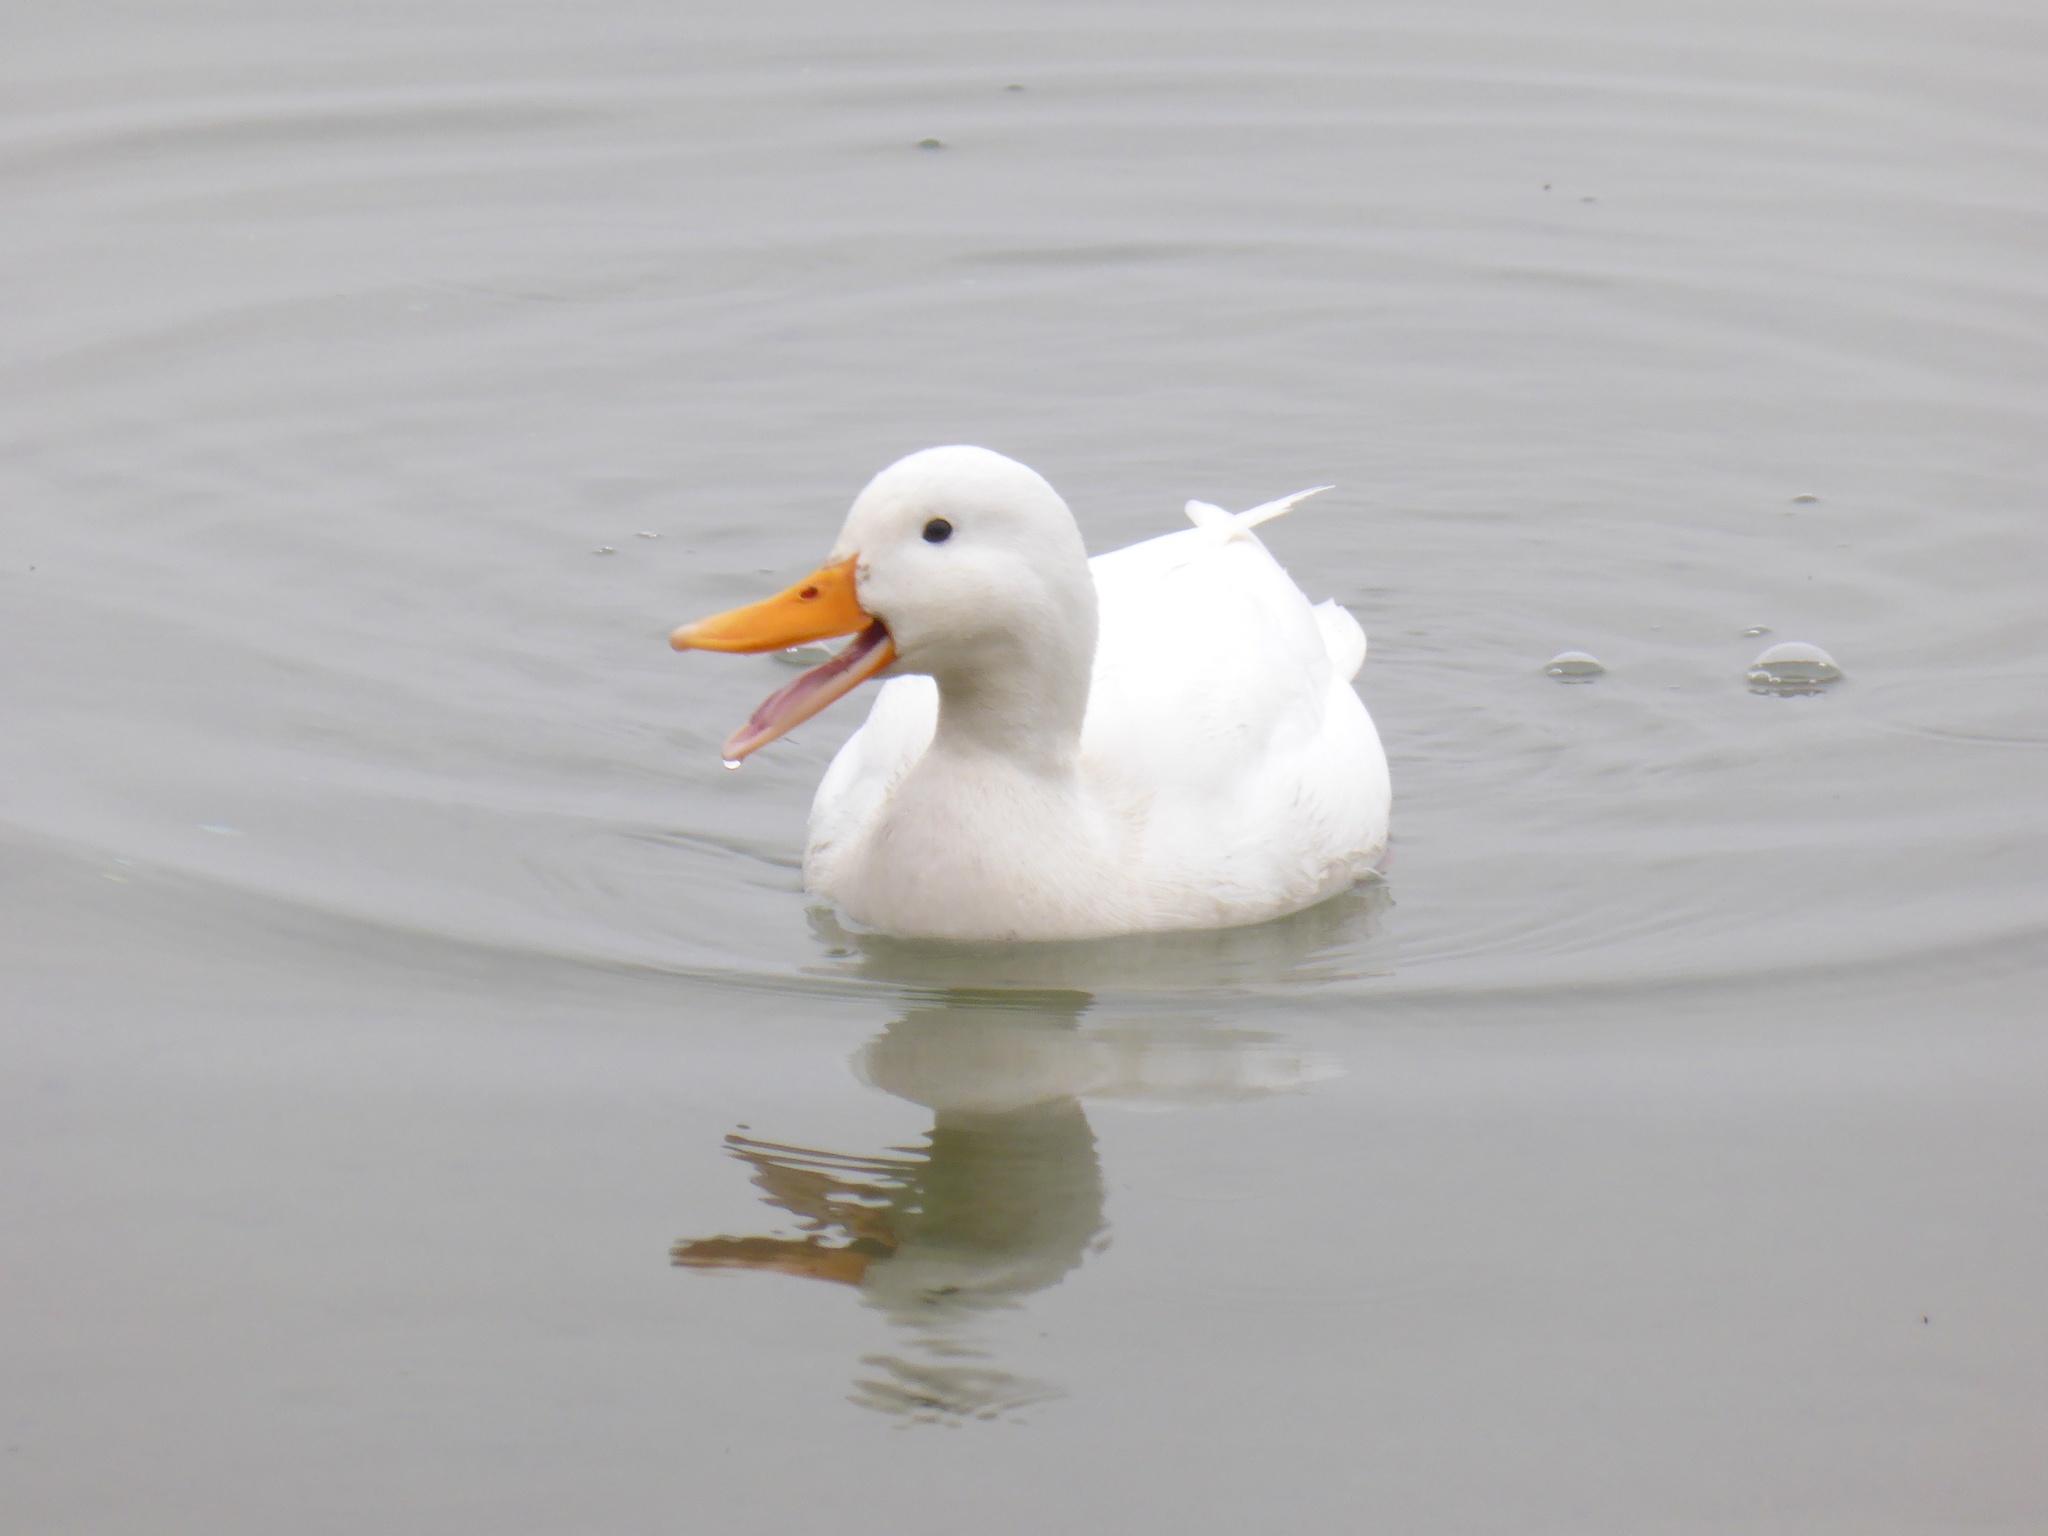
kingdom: Animalia
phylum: Chordata
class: Aves
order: Anseriformes
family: Anatidae
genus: Anas
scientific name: Anas platyrhynchos
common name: Mallard
